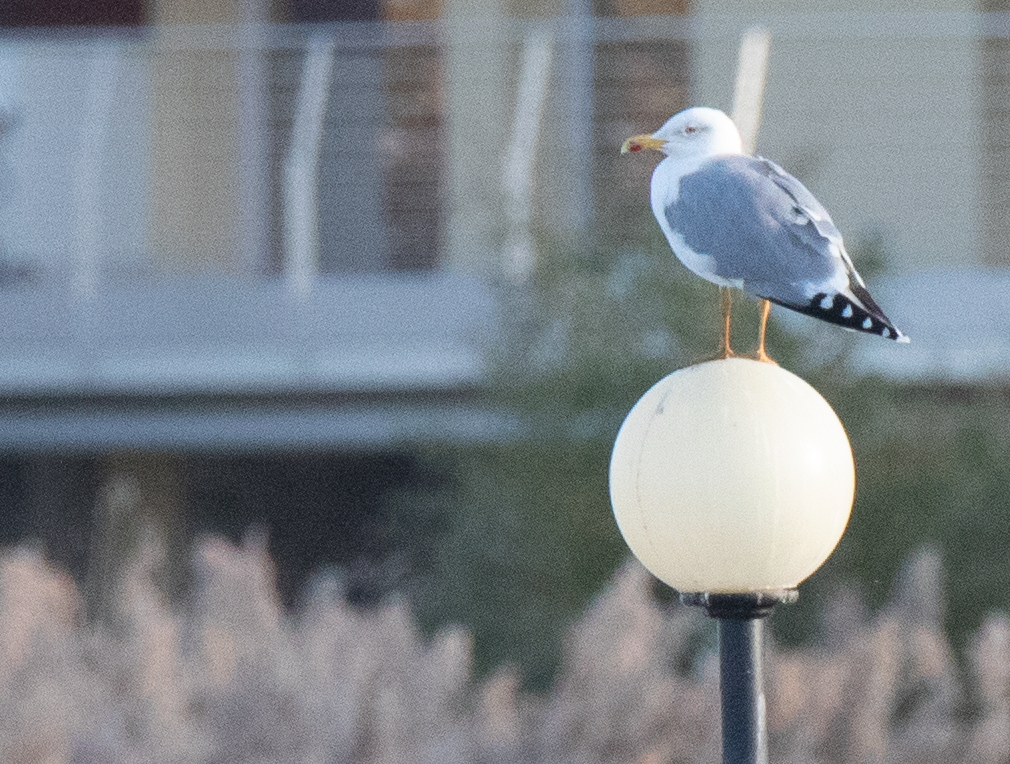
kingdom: Animalia
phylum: Chordata
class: Aves
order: Charadriiformes
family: Laridae
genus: Larus
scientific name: Larus michahellis
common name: Yellow-legged gull
